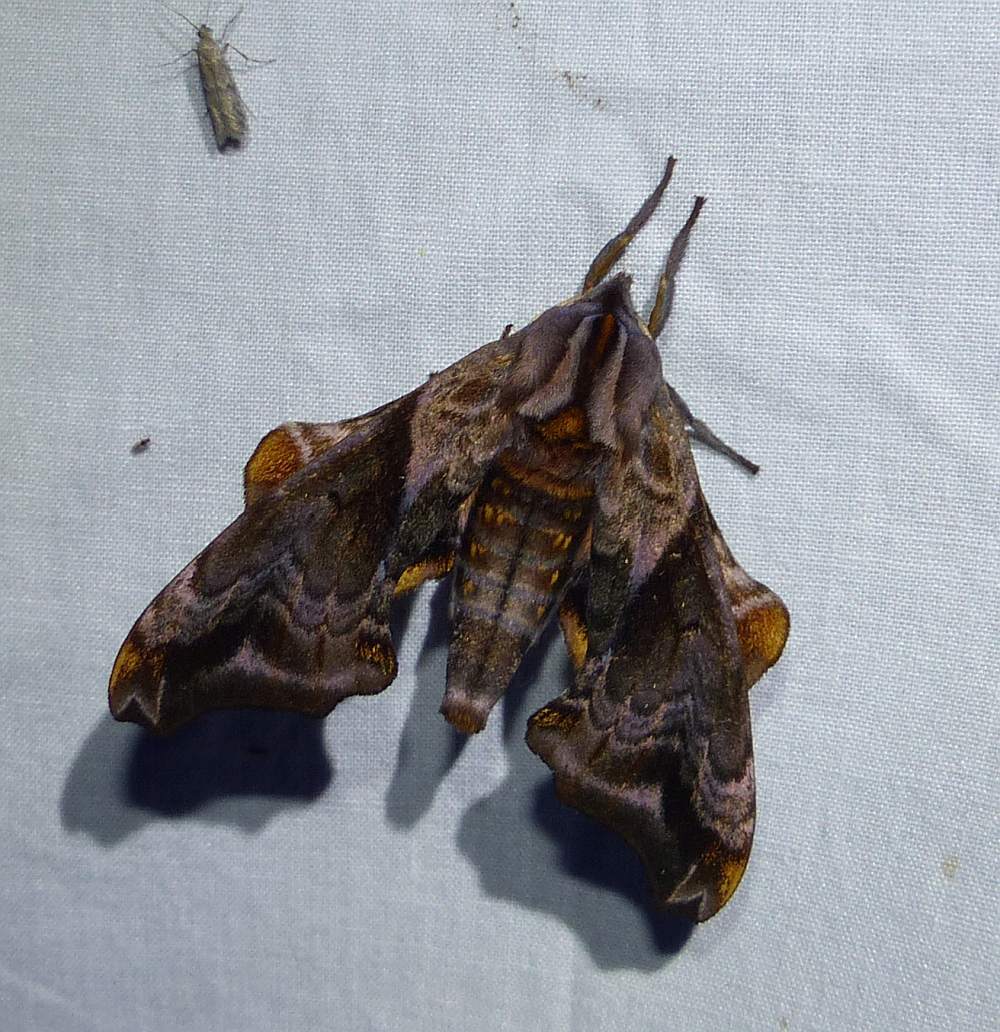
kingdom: Animalia
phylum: Arthropoda
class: Insecta
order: Lepidoptera
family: Sphingidae
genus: Paonias
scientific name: Paonias myops
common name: Small-eyed sphinx
